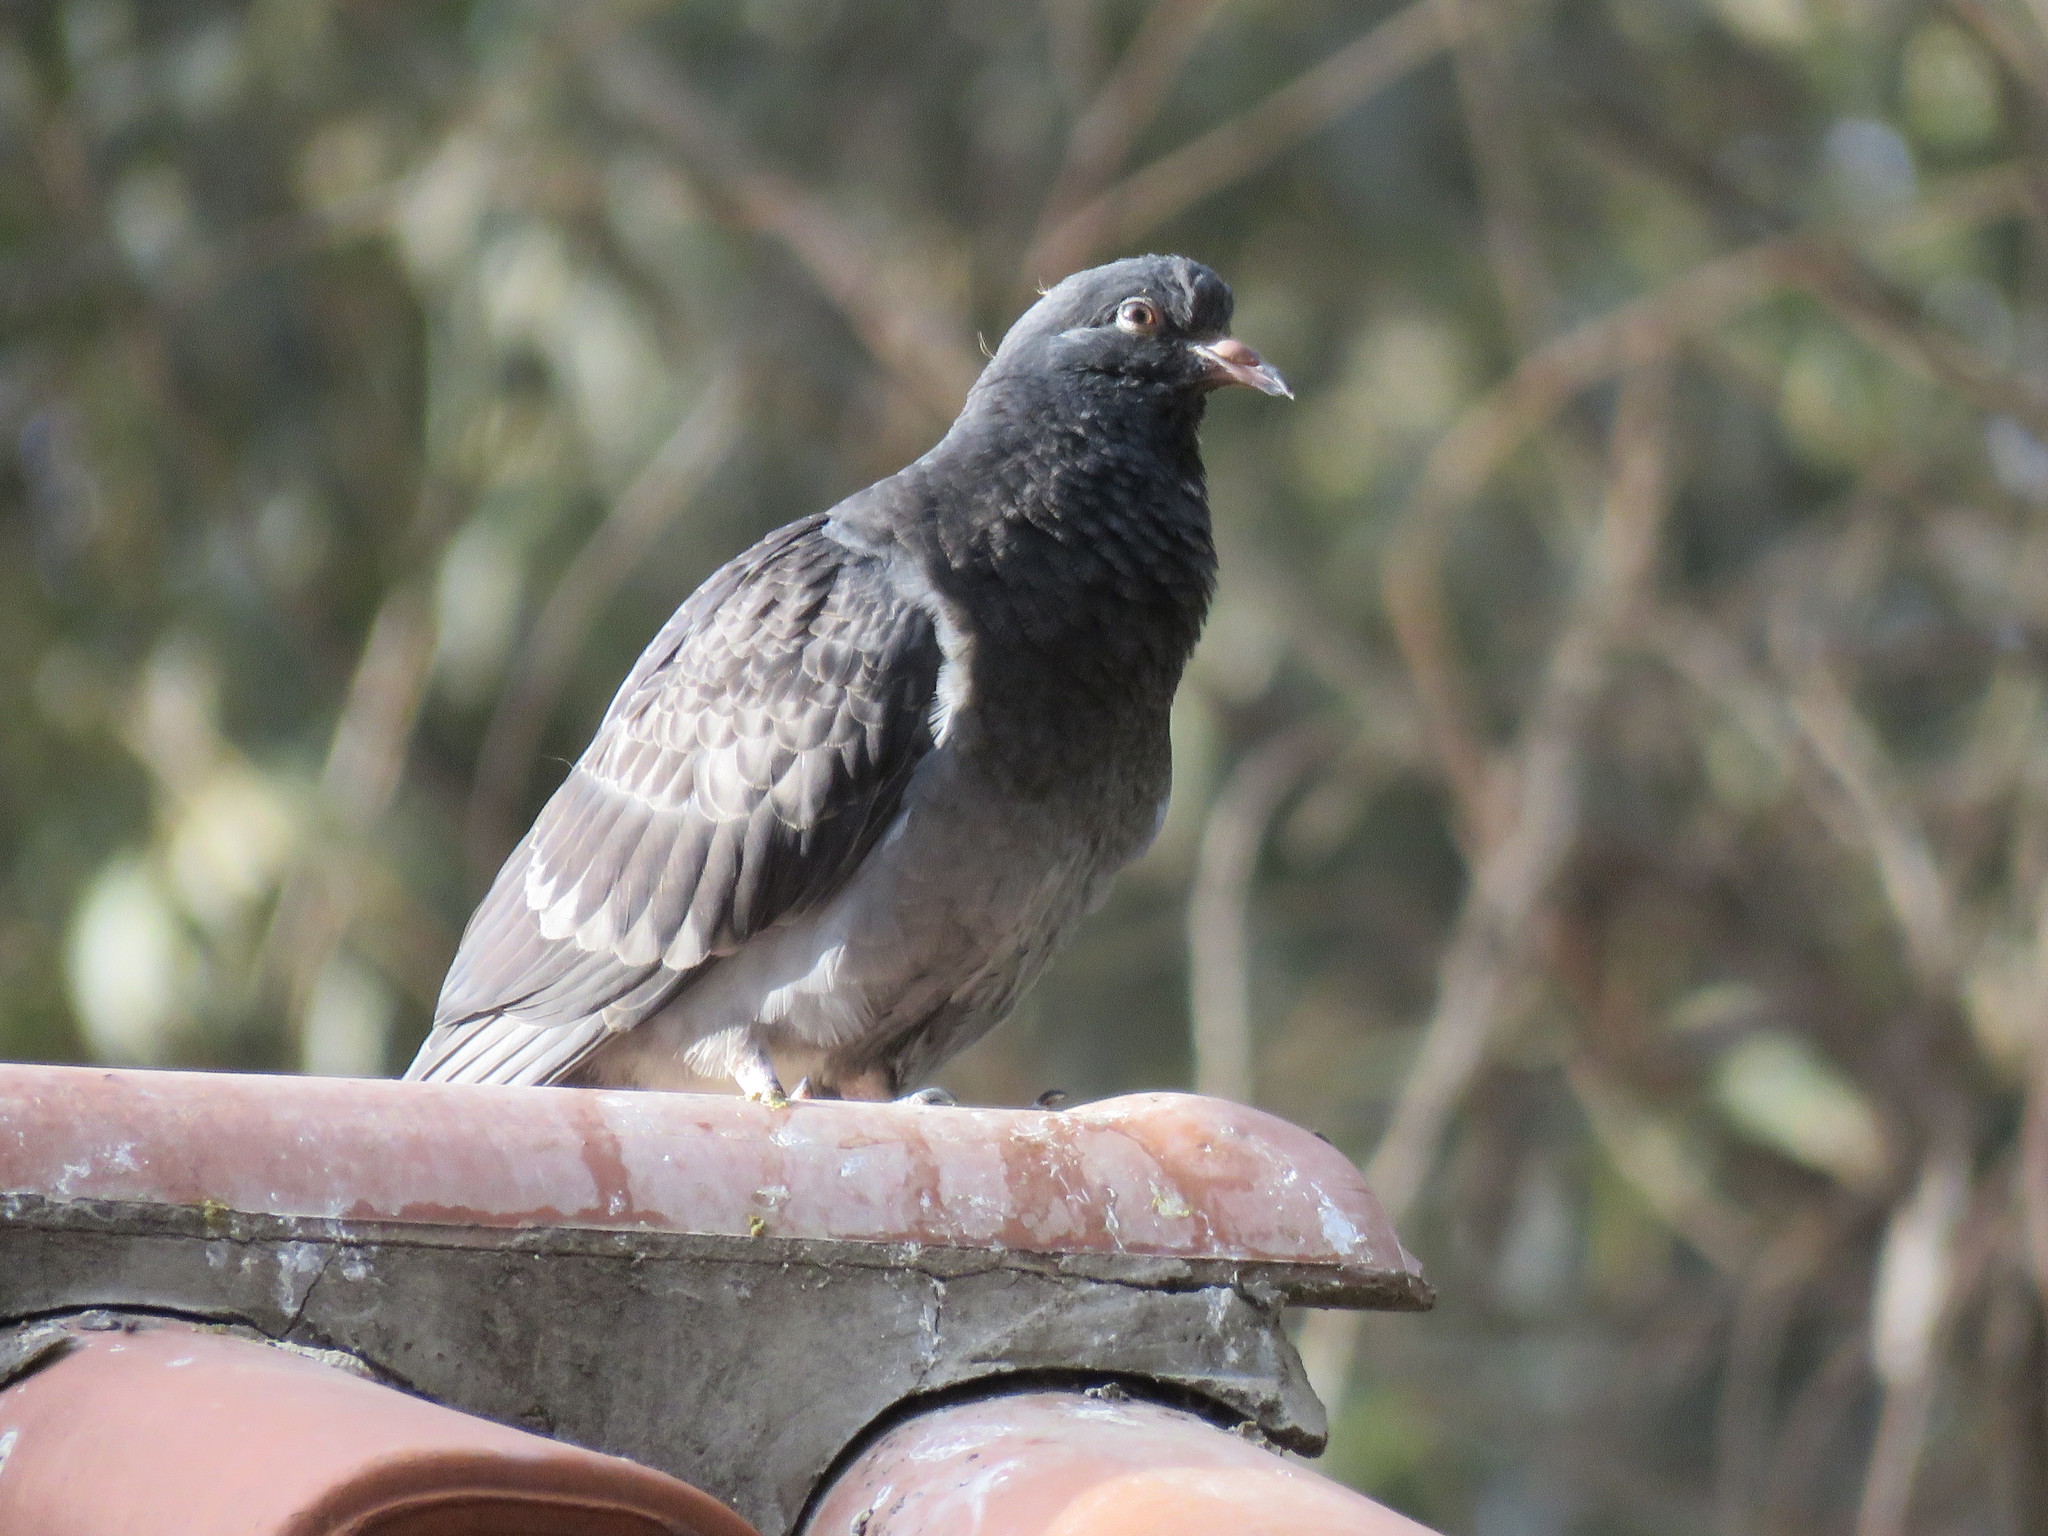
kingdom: Animalia
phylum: Chordata
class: Aves
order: Columbiformes
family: Columbidae
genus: Columba
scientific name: Columba livia
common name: Rock pigeon
